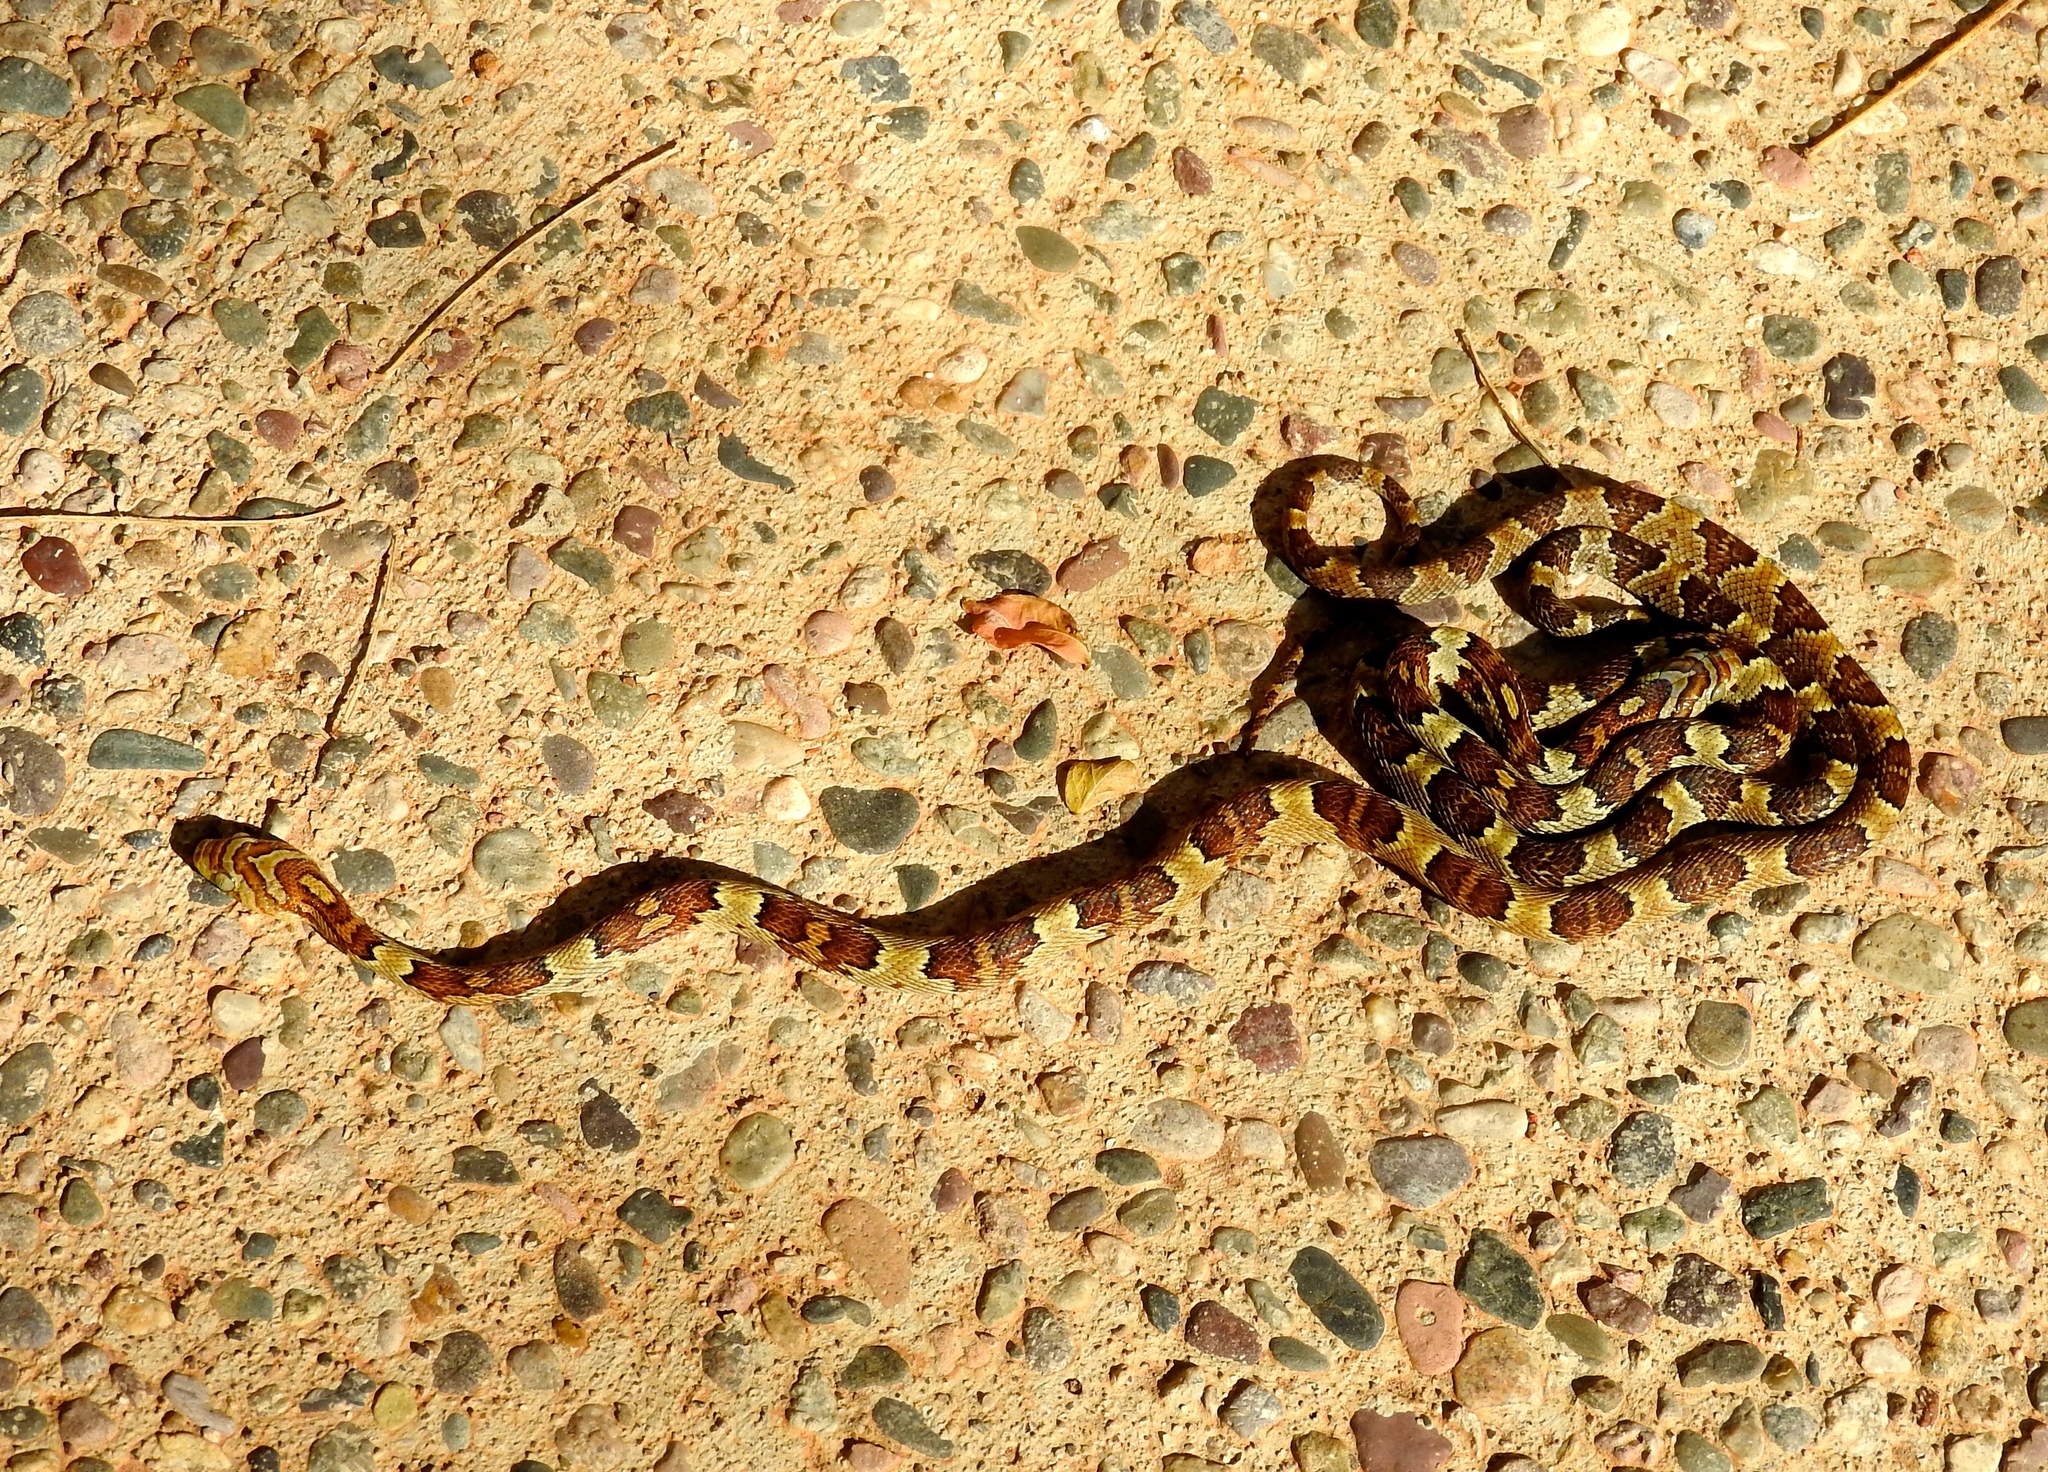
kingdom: Animalia
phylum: Chordata
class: Squamata
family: Colubridae
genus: Trimorphodon
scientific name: Trimorphodon paucimaculatus
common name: Sinaloan lyresnake
